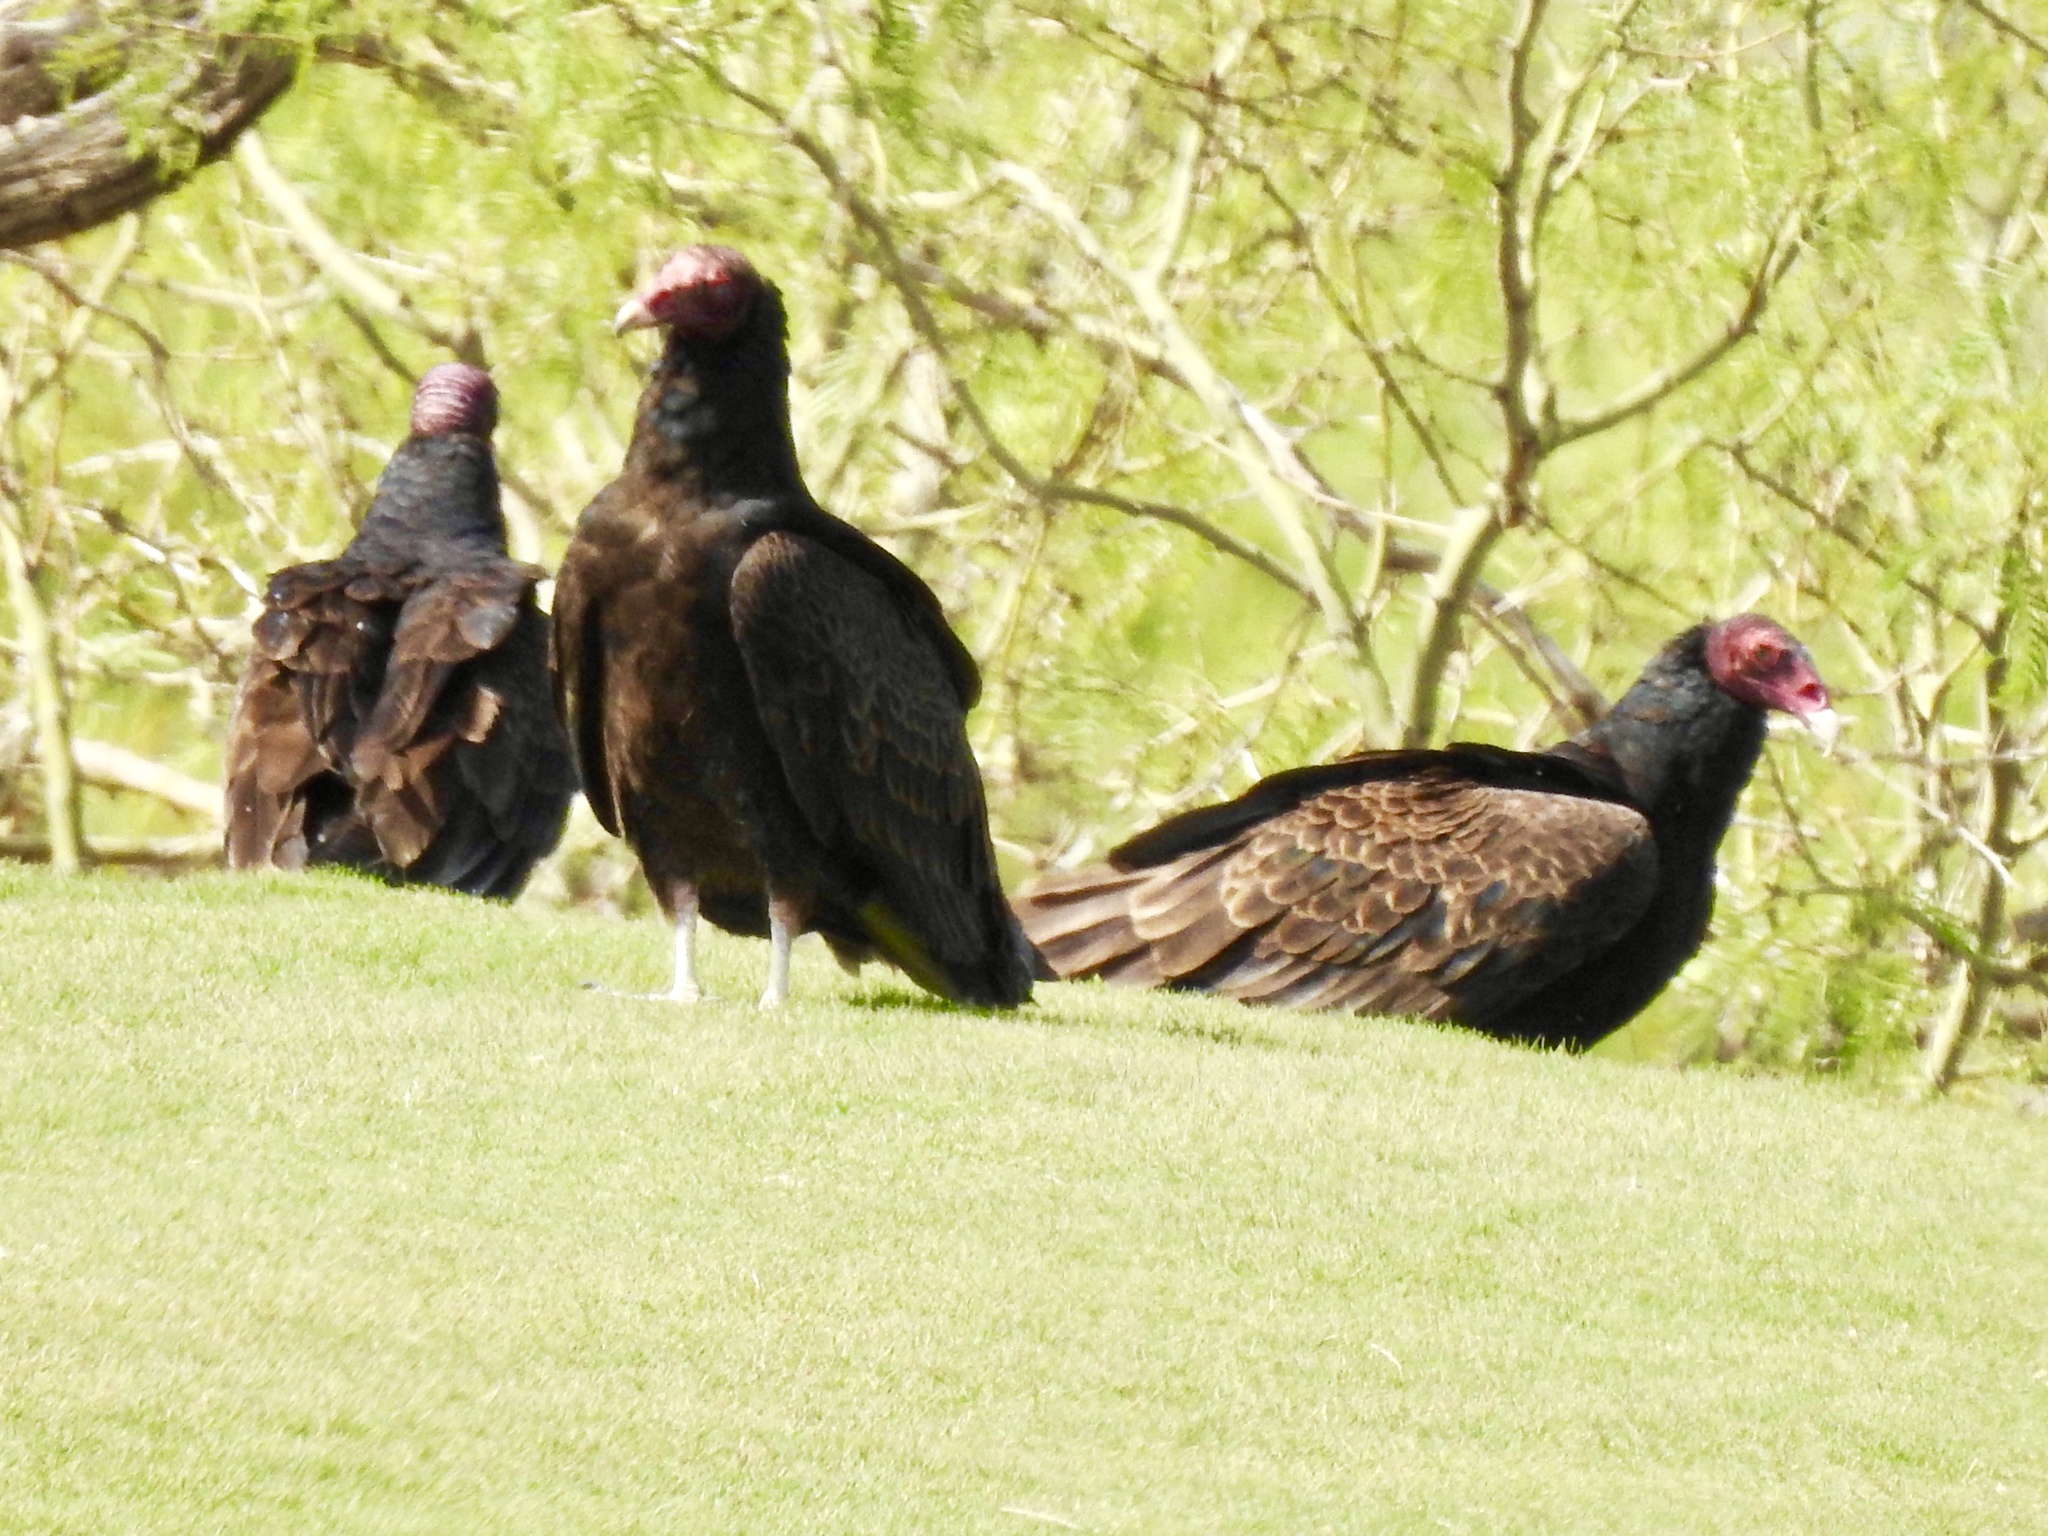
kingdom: Animalia
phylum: Chordata
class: Aves
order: Accipitriformes
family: Cathartidae
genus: Cathartes
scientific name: Cathartes aura
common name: Turkey vulture
